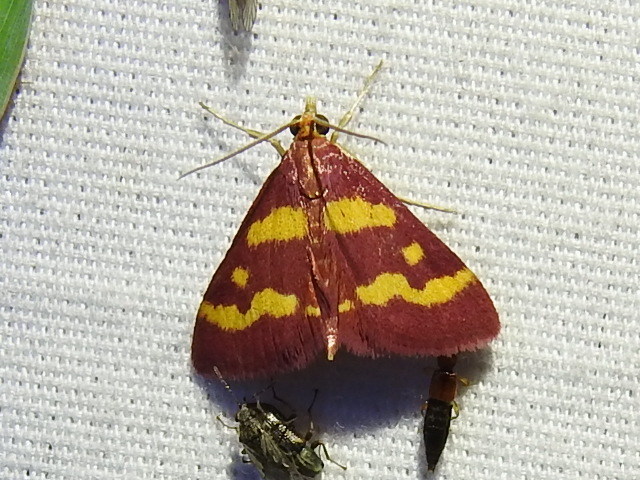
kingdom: Animalia
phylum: Arthropoda
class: Insecta
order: Lepidoptera
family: Crambidae
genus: Pyrausta
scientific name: Pyrausta tyralis
